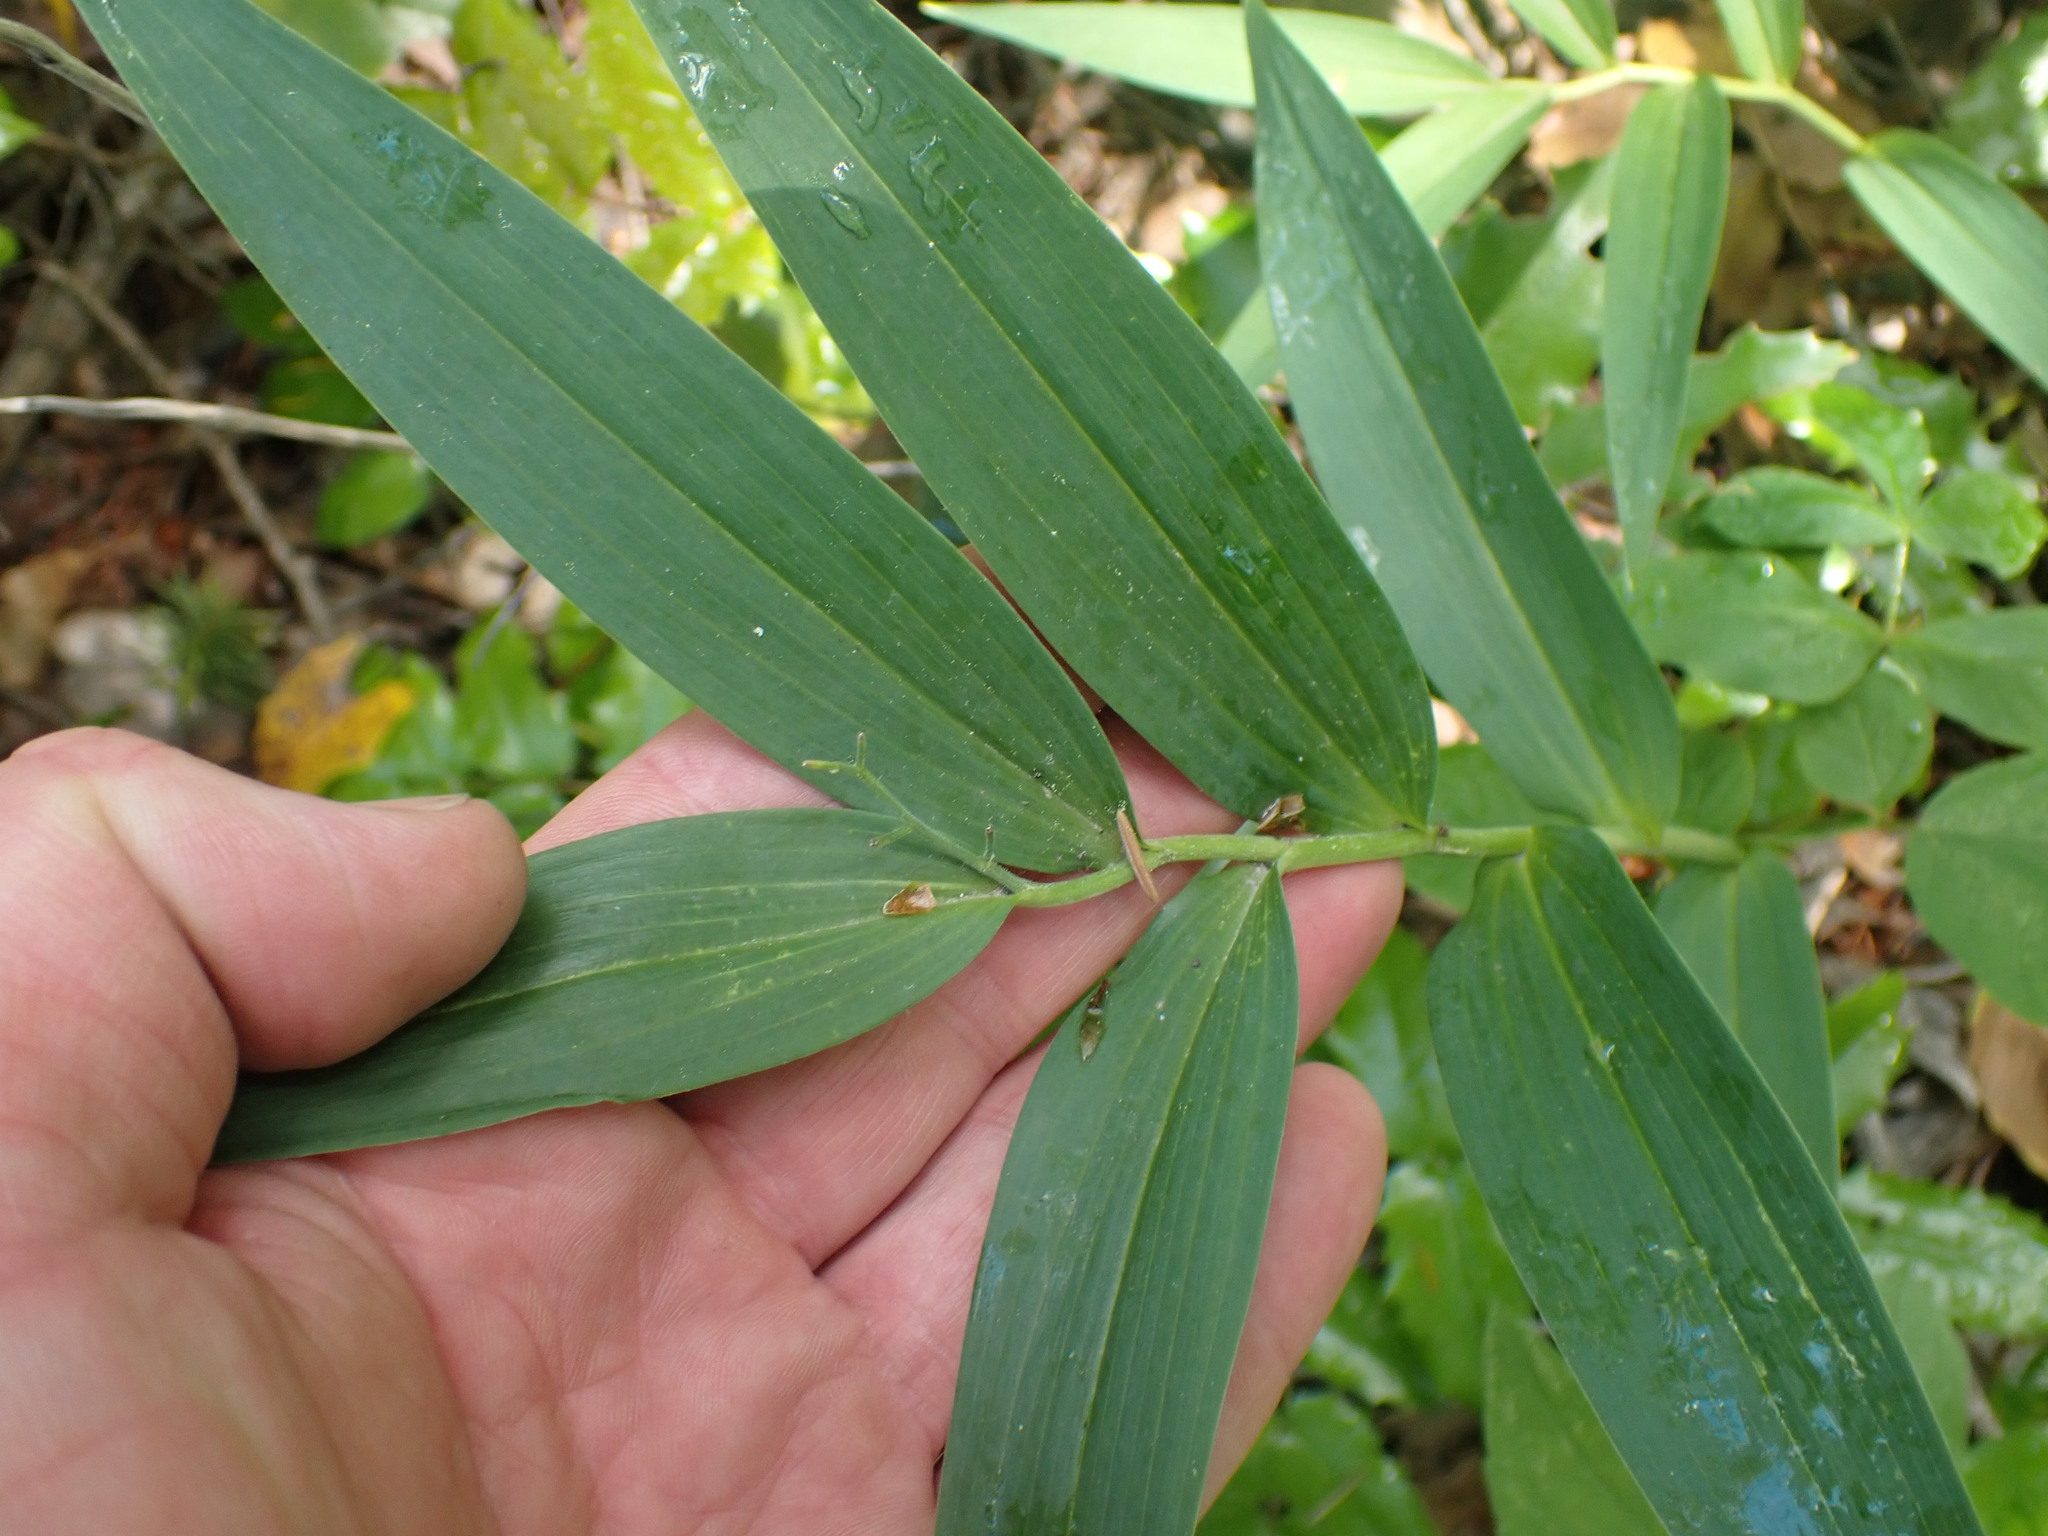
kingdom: Plantae
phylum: Tracheophyta
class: Liliopsida
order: Asparagales
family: Asparagaceae
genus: Maianthemum
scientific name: Maianthemum stellatum
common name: Little false solomon's seal
